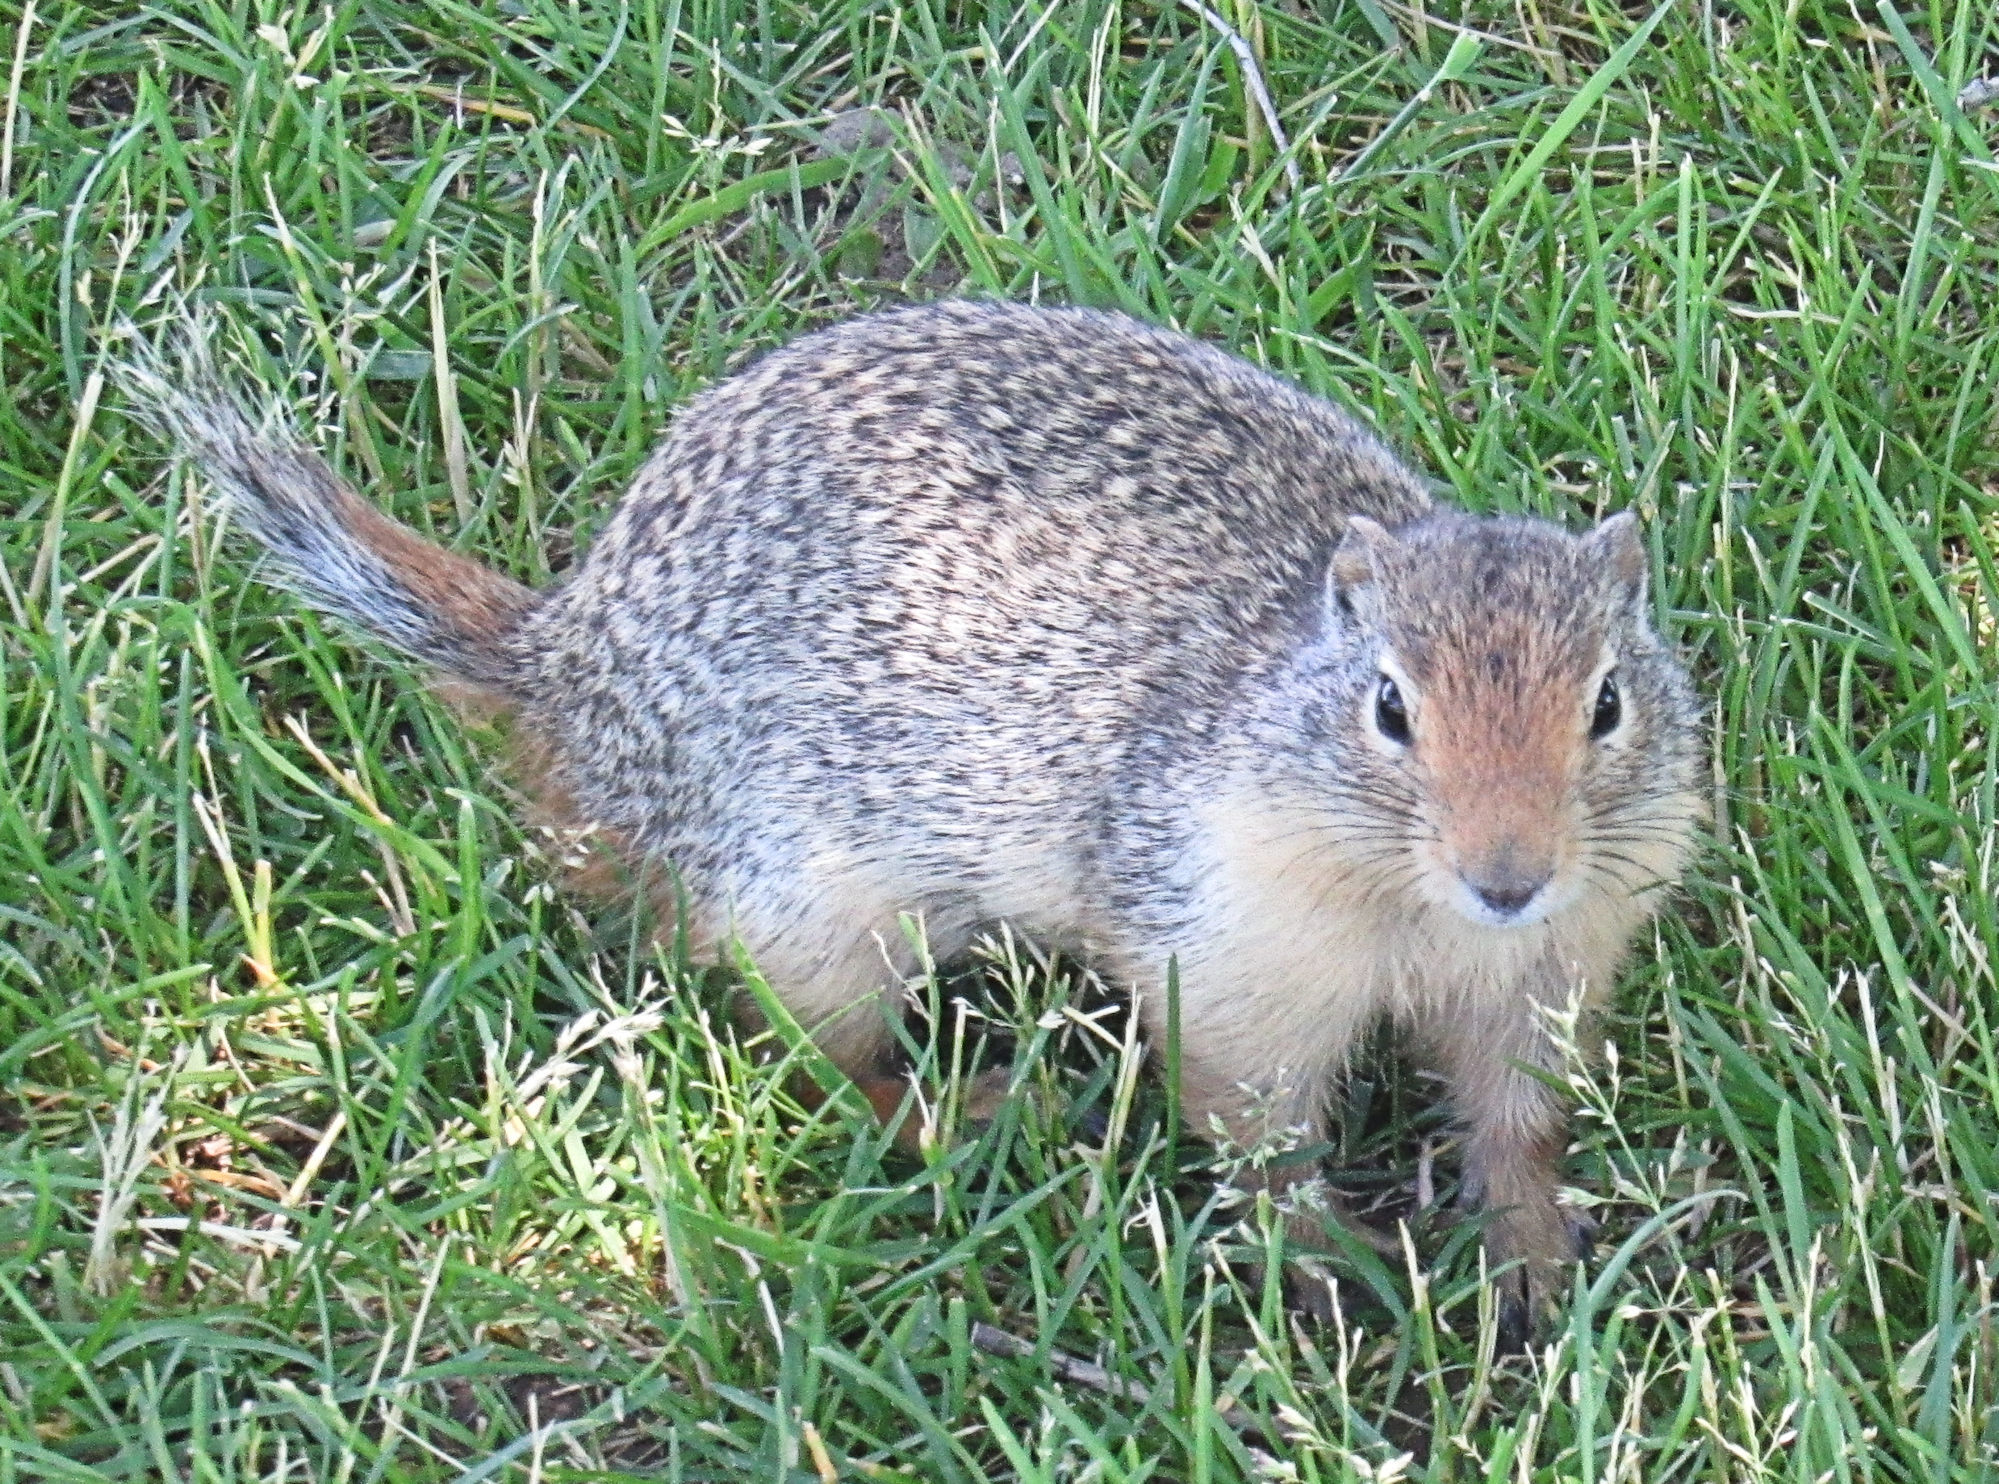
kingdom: Animalia
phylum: Chordata
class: Mammalia
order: Rodentia
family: Sciuridae
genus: Urocitellus
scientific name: Urocitellus columbianus
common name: Columbian ground squirrel
